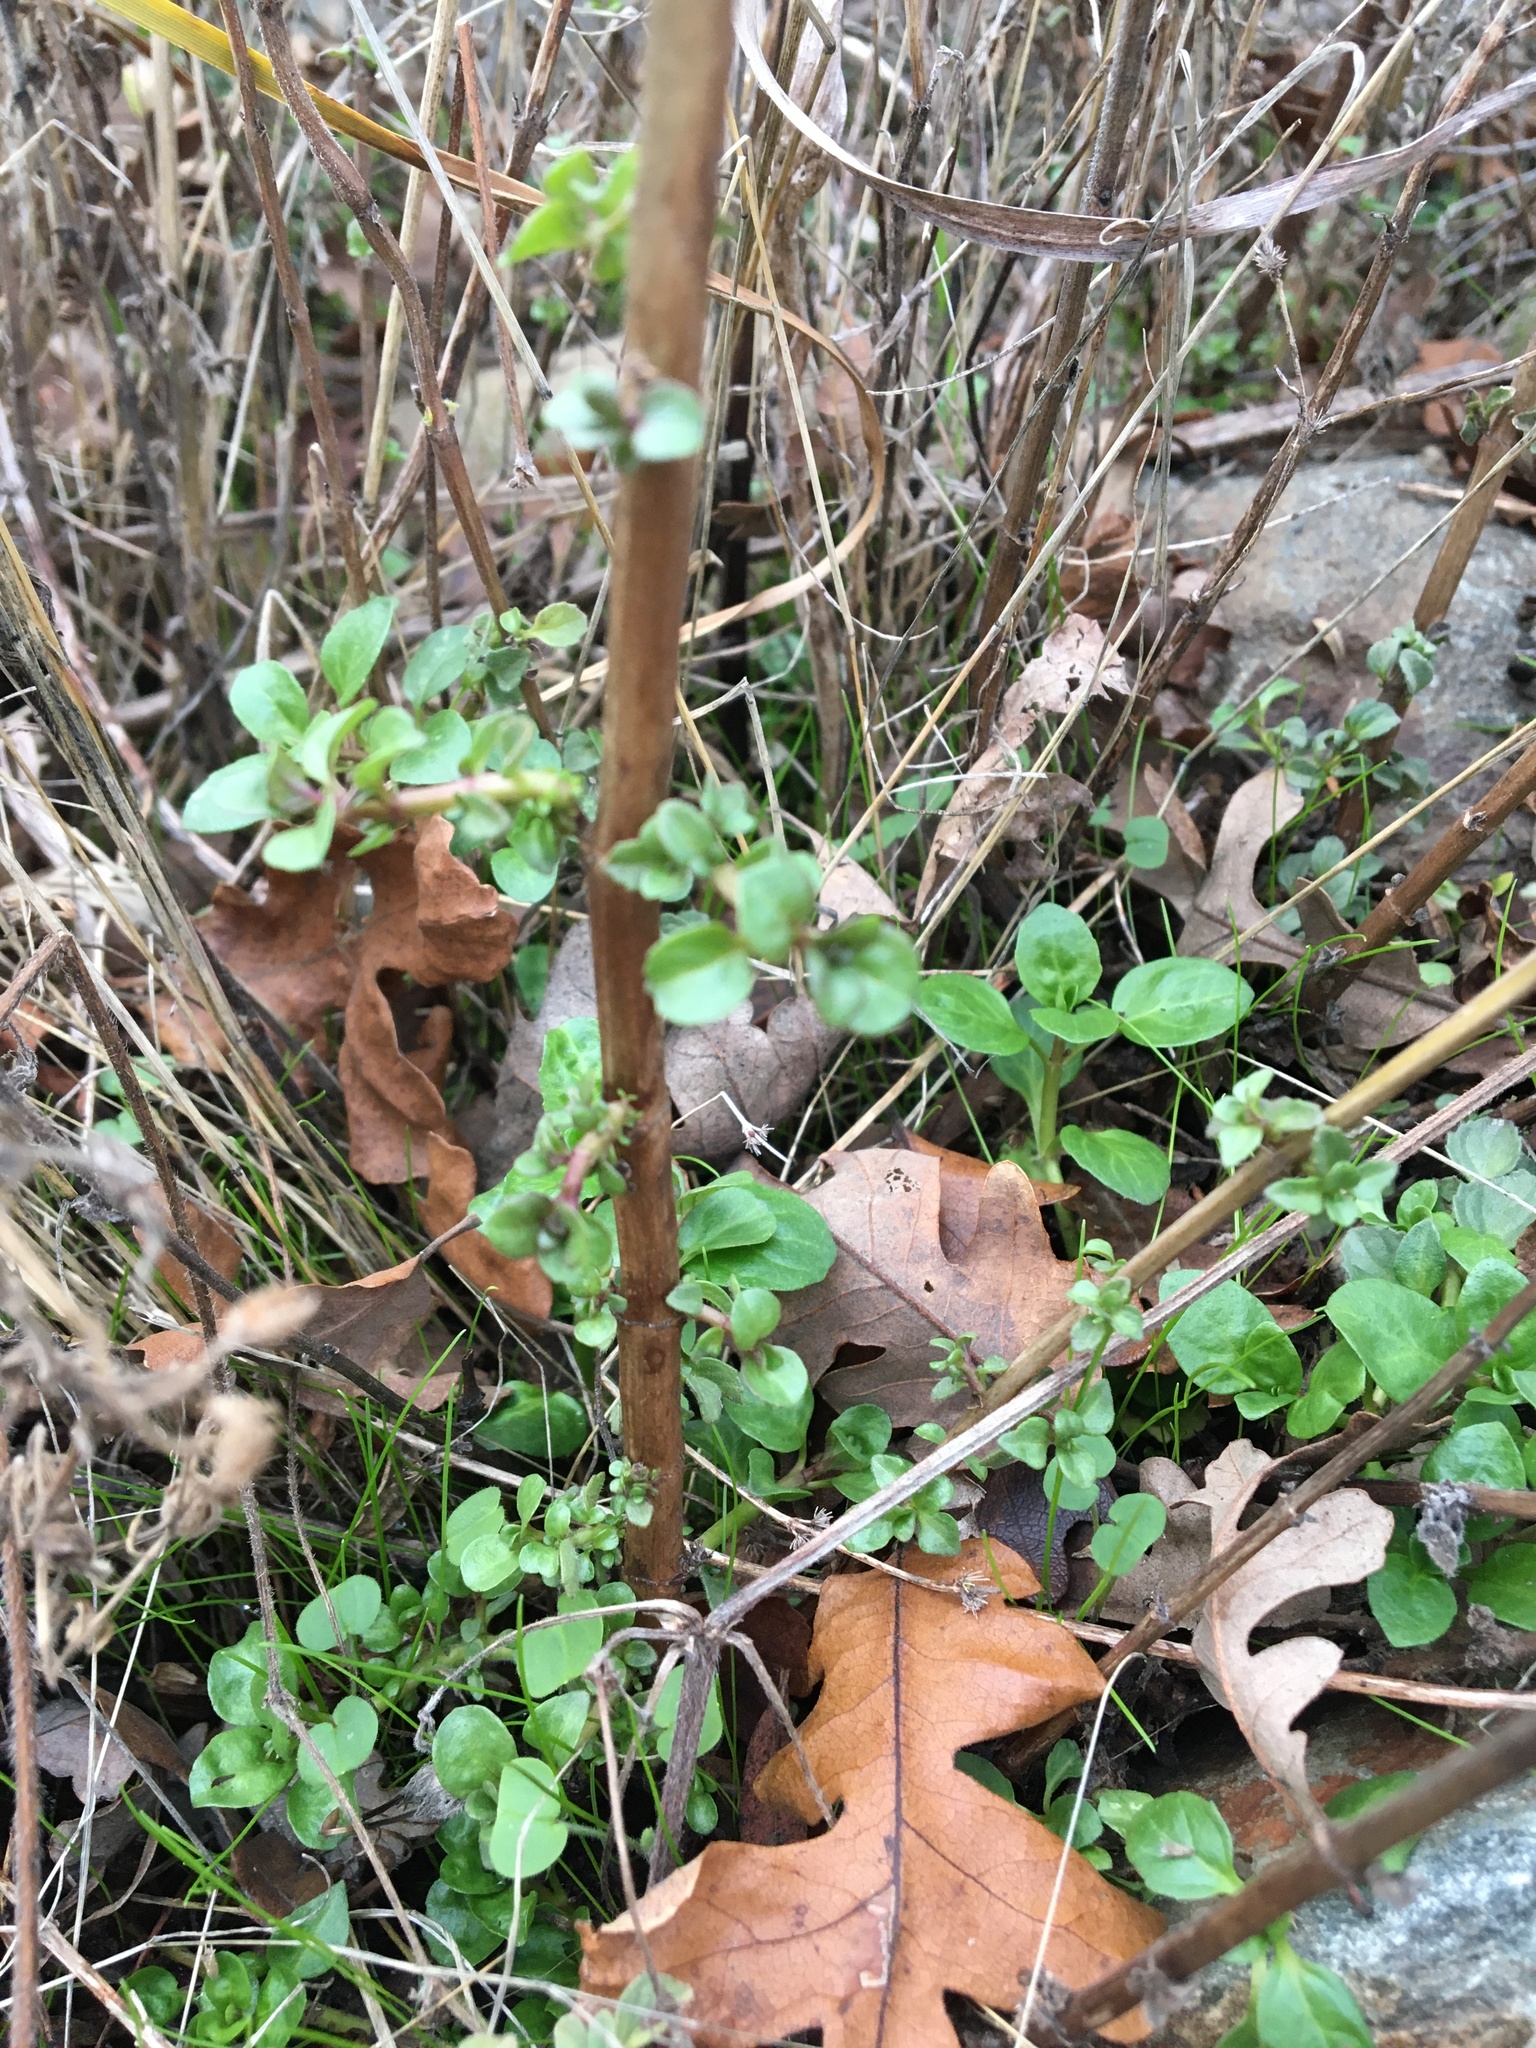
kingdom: Plantae
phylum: Tracheophyta
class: Magnoliopsida
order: Lamiales
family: Lamiaceae
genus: Mentha
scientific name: Mentha pulegium
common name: Pennyroyal
